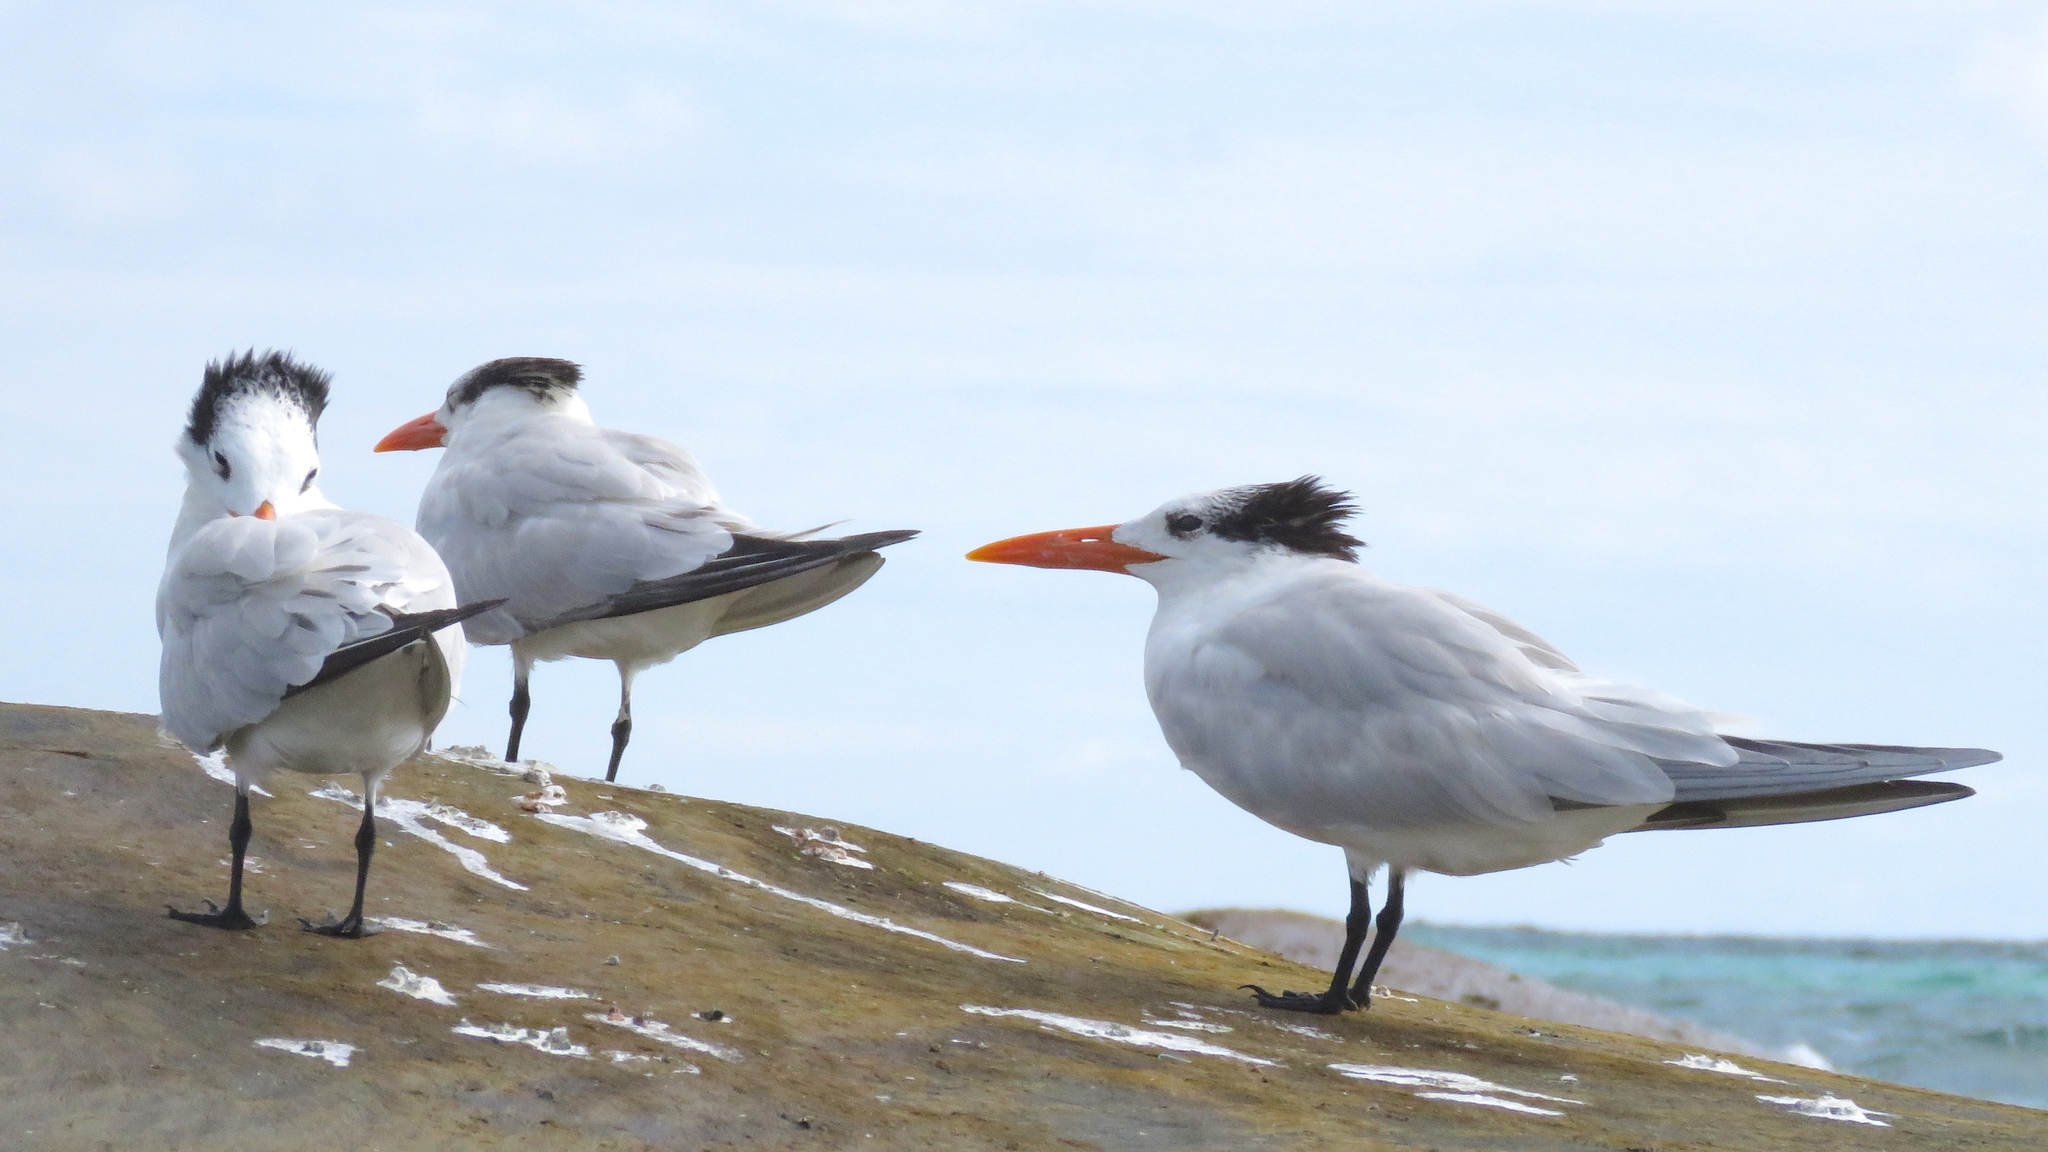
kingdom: Animalia
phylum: Chordata
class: Aves
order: Charadriiformes
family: Laridae
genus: Thalasseus
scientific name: Thalasseus maximus
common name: Royal tern
